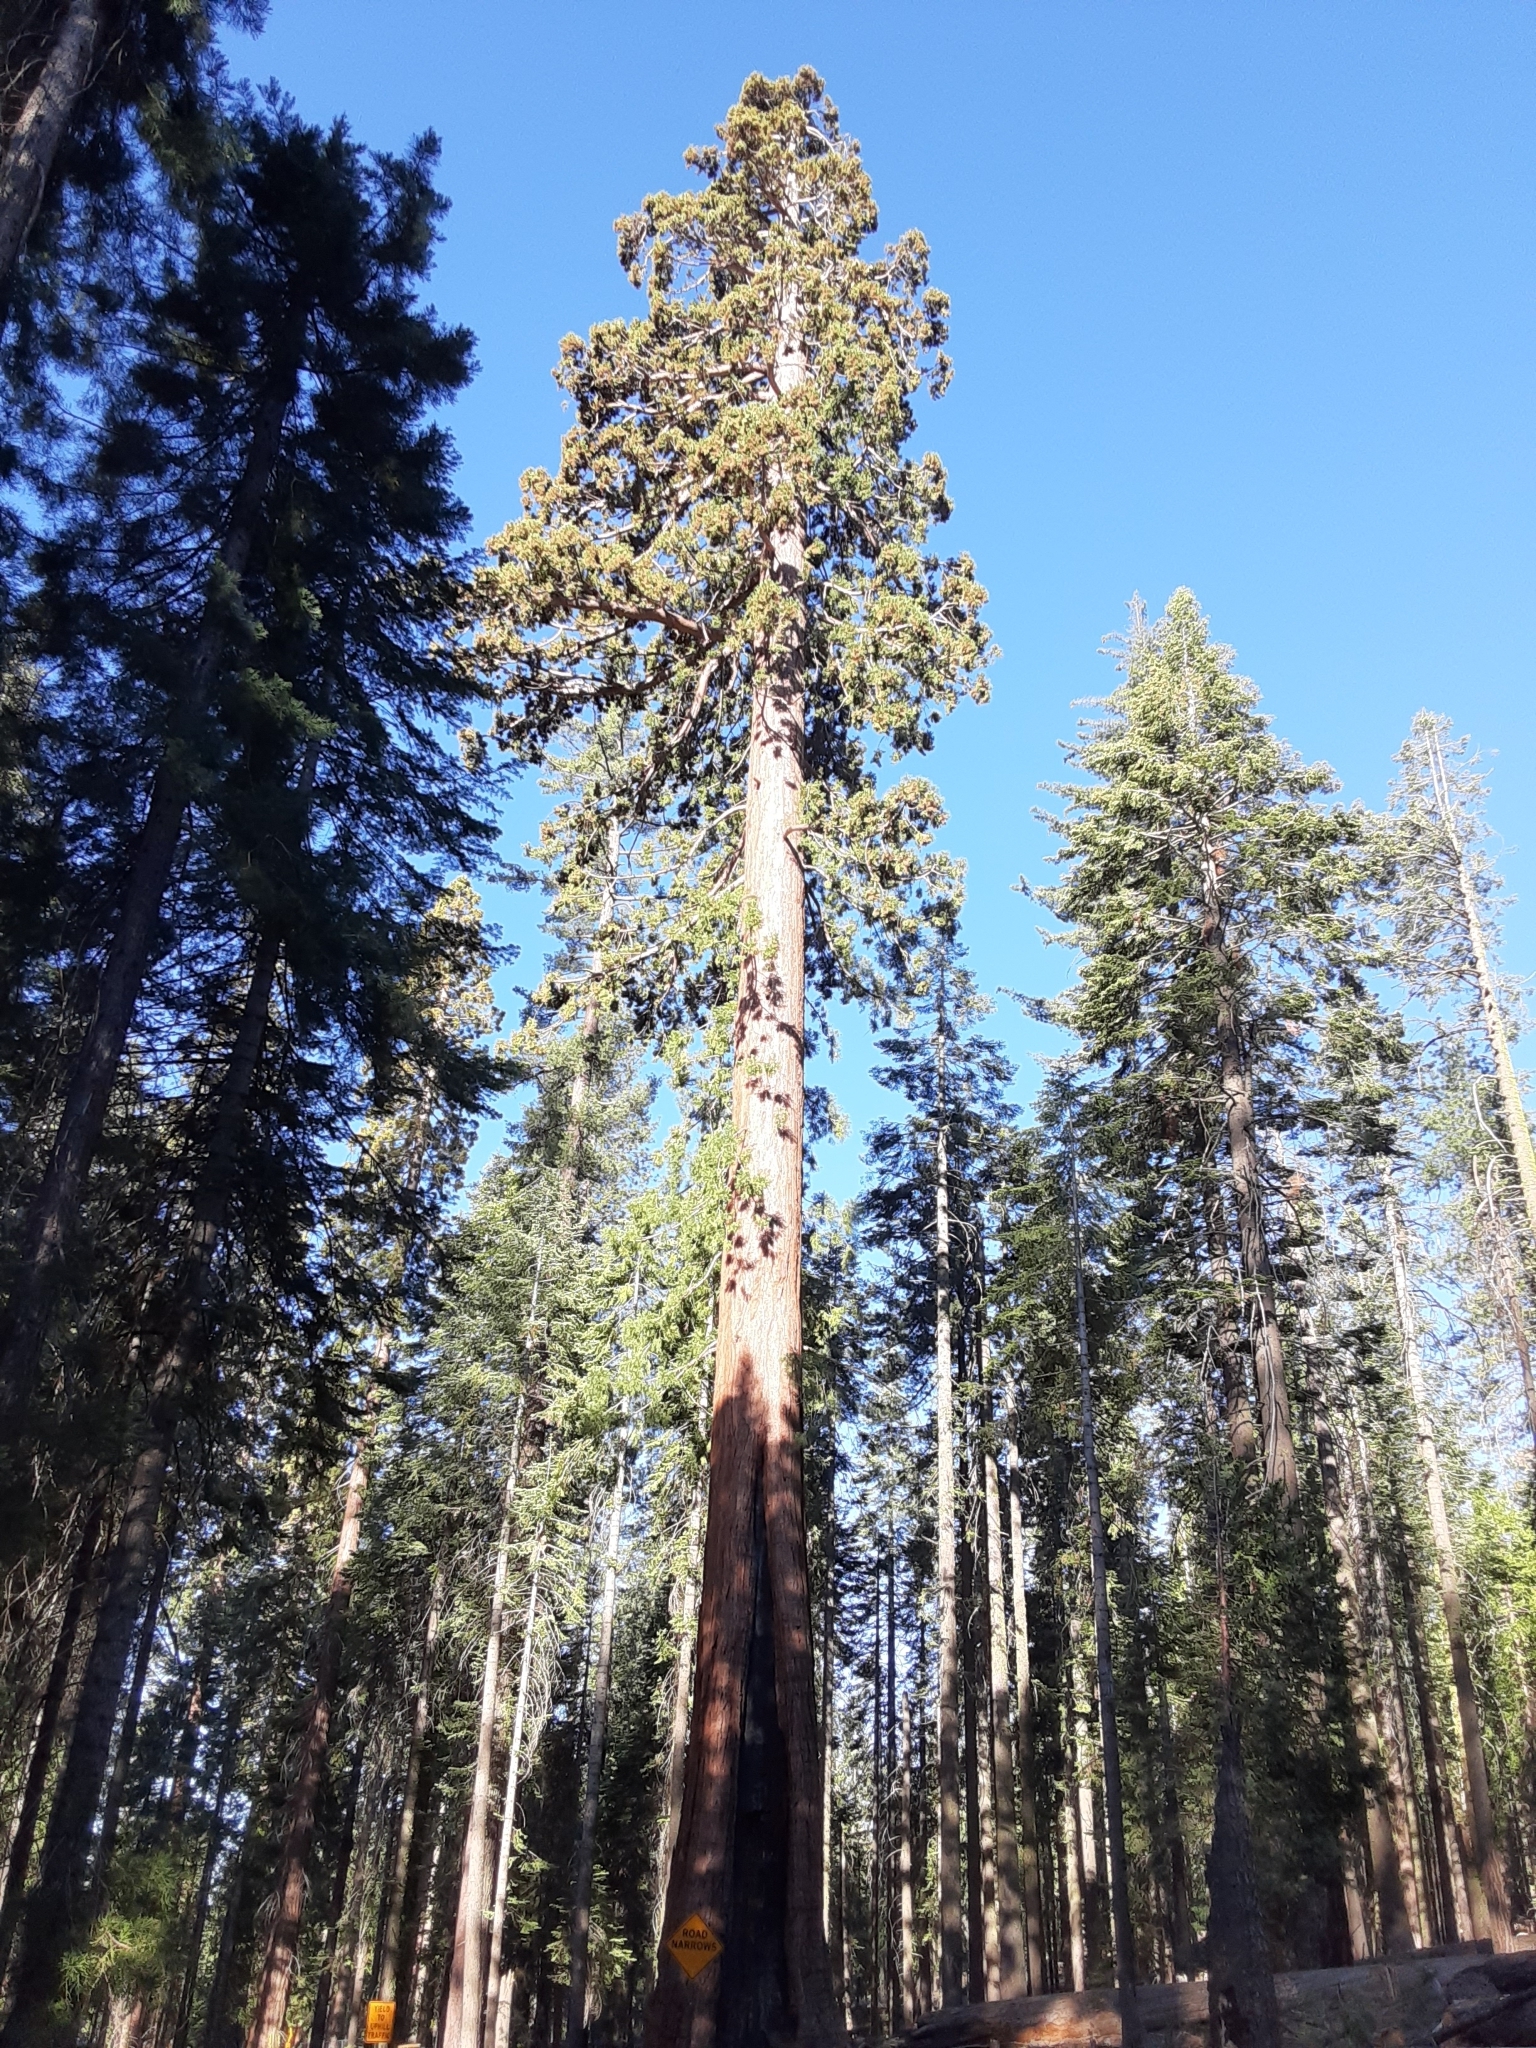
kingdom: Plantae
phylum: Tracheophyta
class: Pinopsida
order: Pinales
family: Cupressaceae
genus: Sequoiadendron
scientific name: Sequoiadendron giganteum
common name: Wellingtonia
